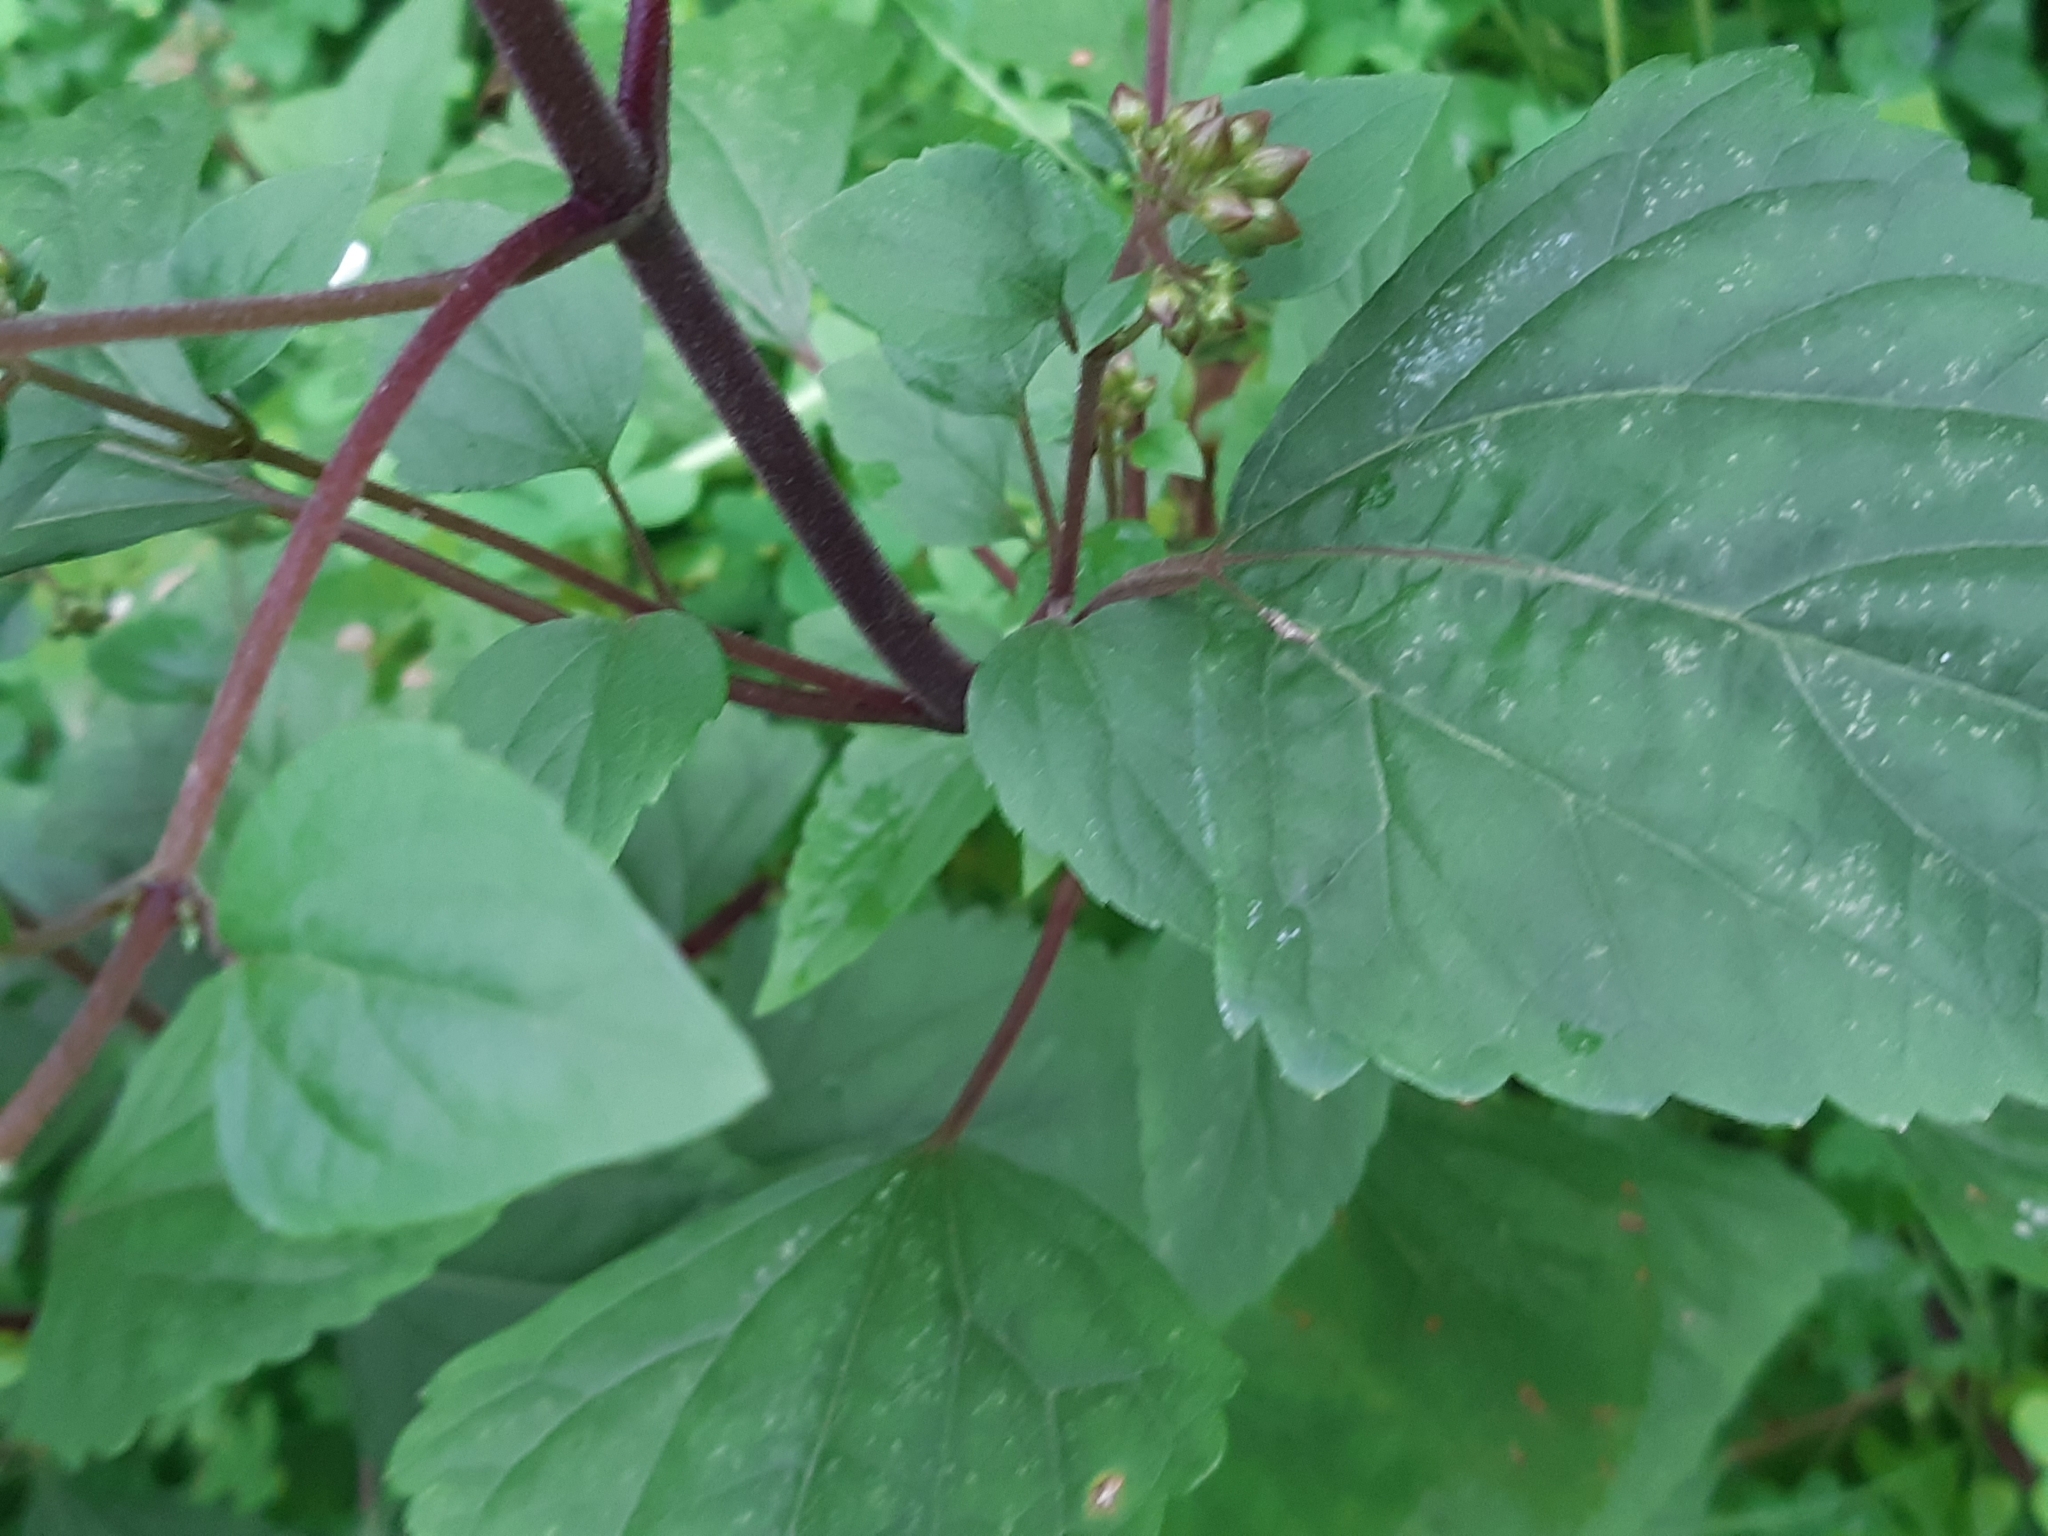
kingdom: Plantae
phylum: Tracheophyta
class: Magnoliopsida
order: Asterales
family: Asteraceae
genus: Ageratina
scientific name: Ageratina adenophora
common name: Sticky snakeroot
